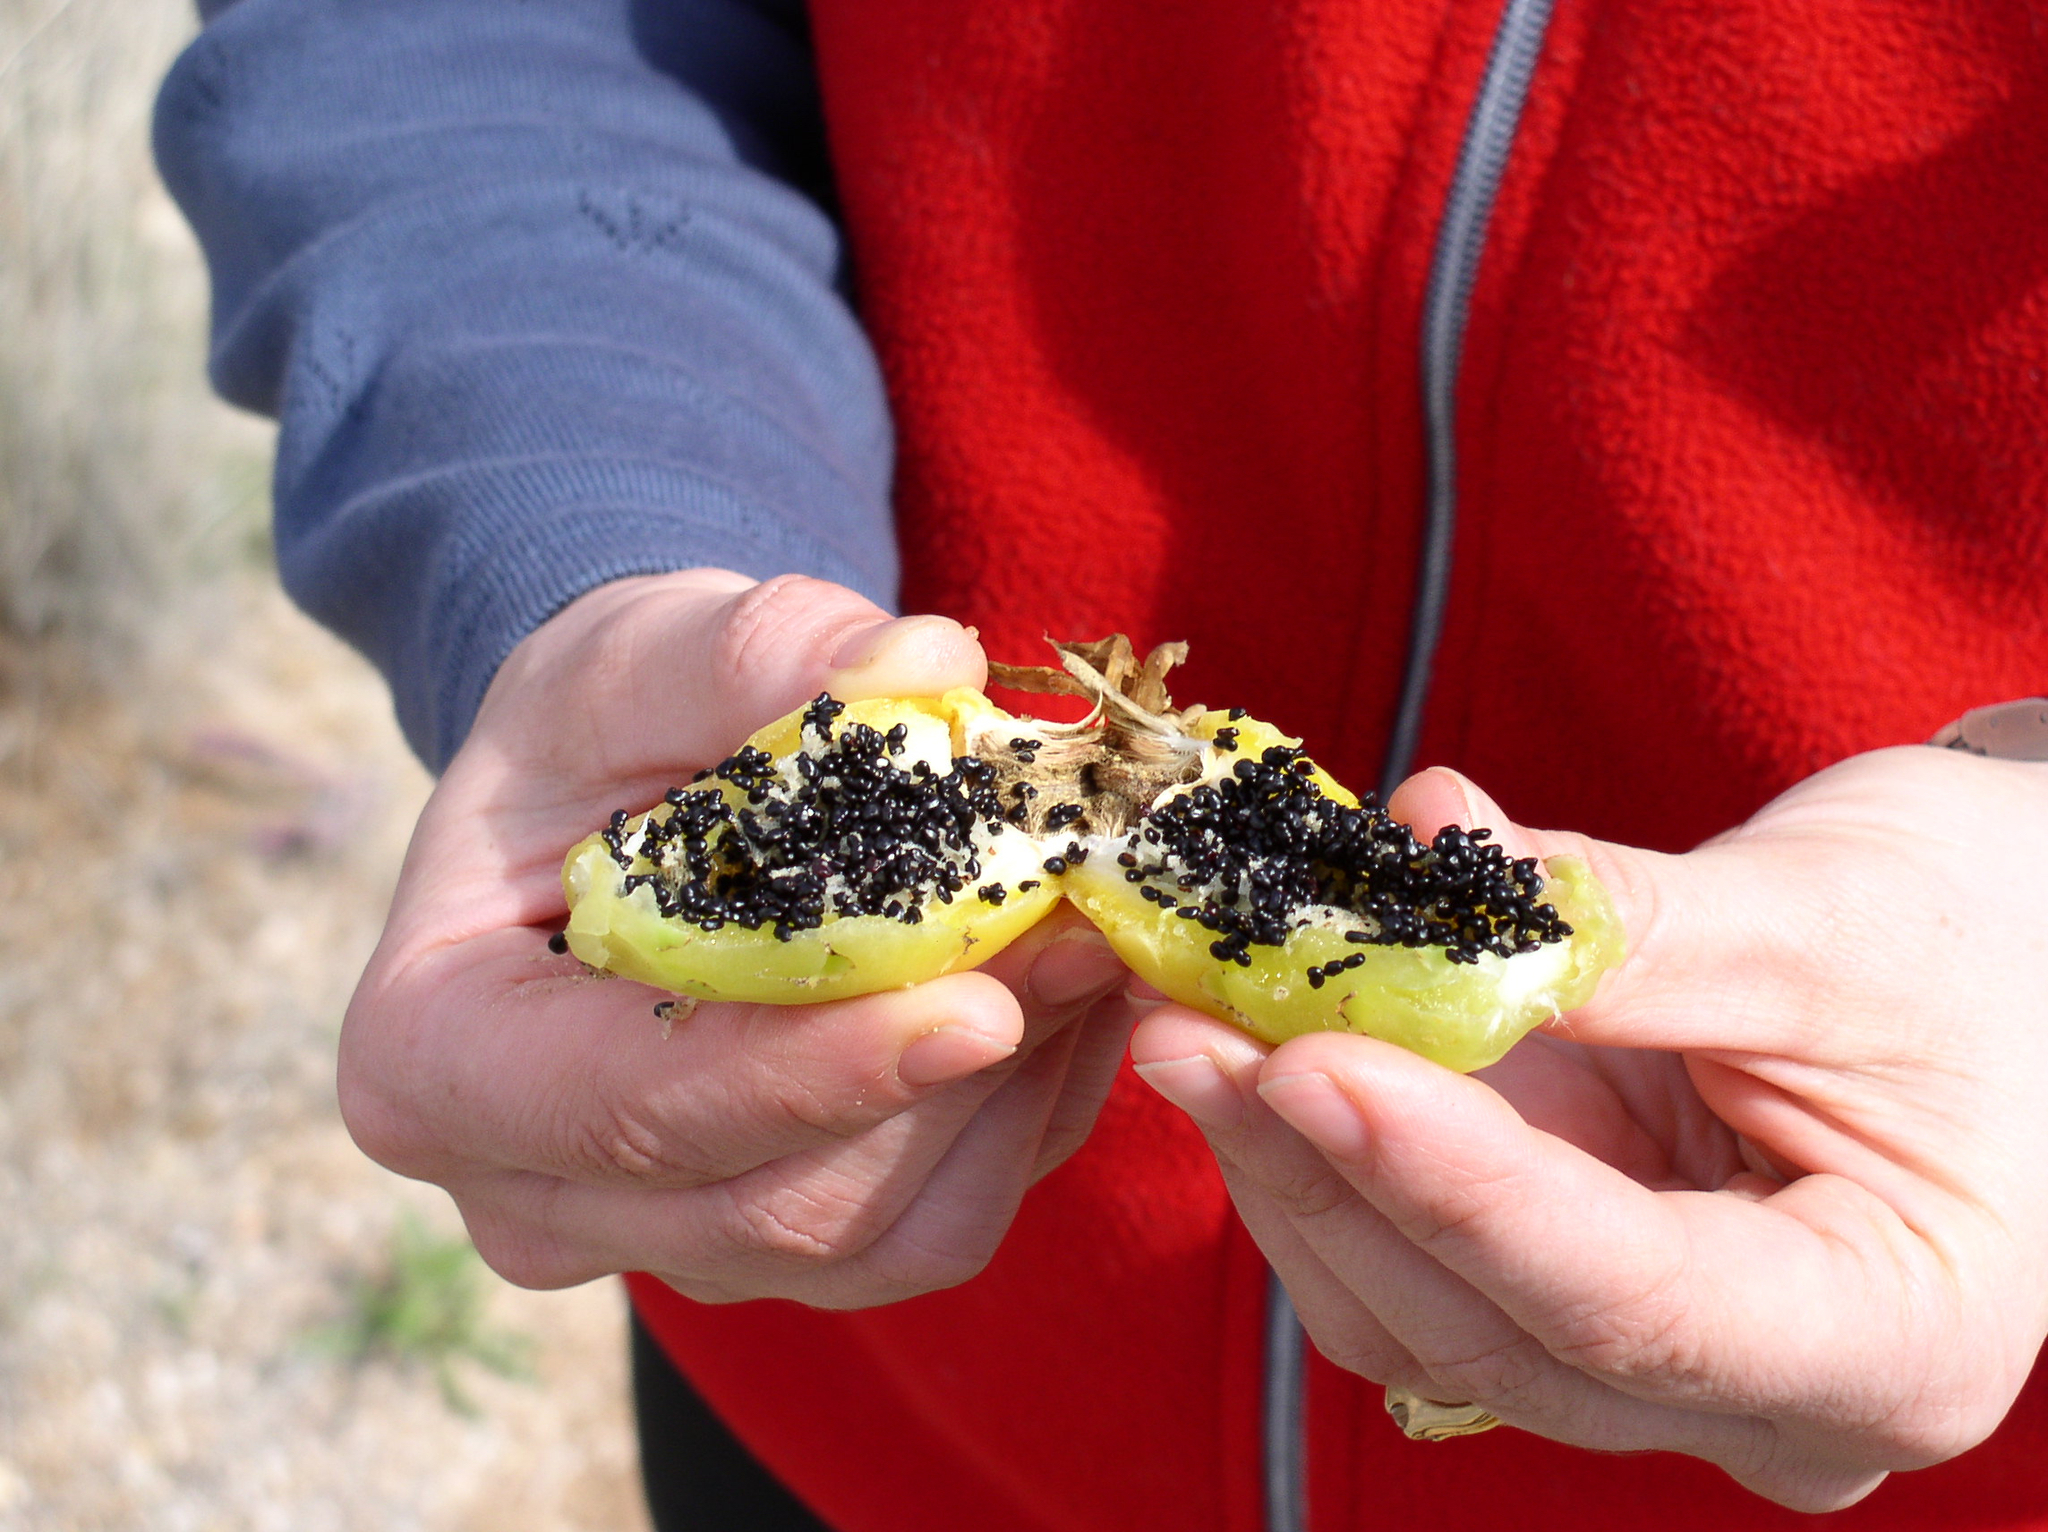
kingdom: Plantae
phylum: Tracheophyta
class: Magnoliopsida
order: Caryophyllales
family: Cactaceae
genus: Ferocactus
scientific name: Ferocactus wislizeni
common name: Candy barrel cactus
